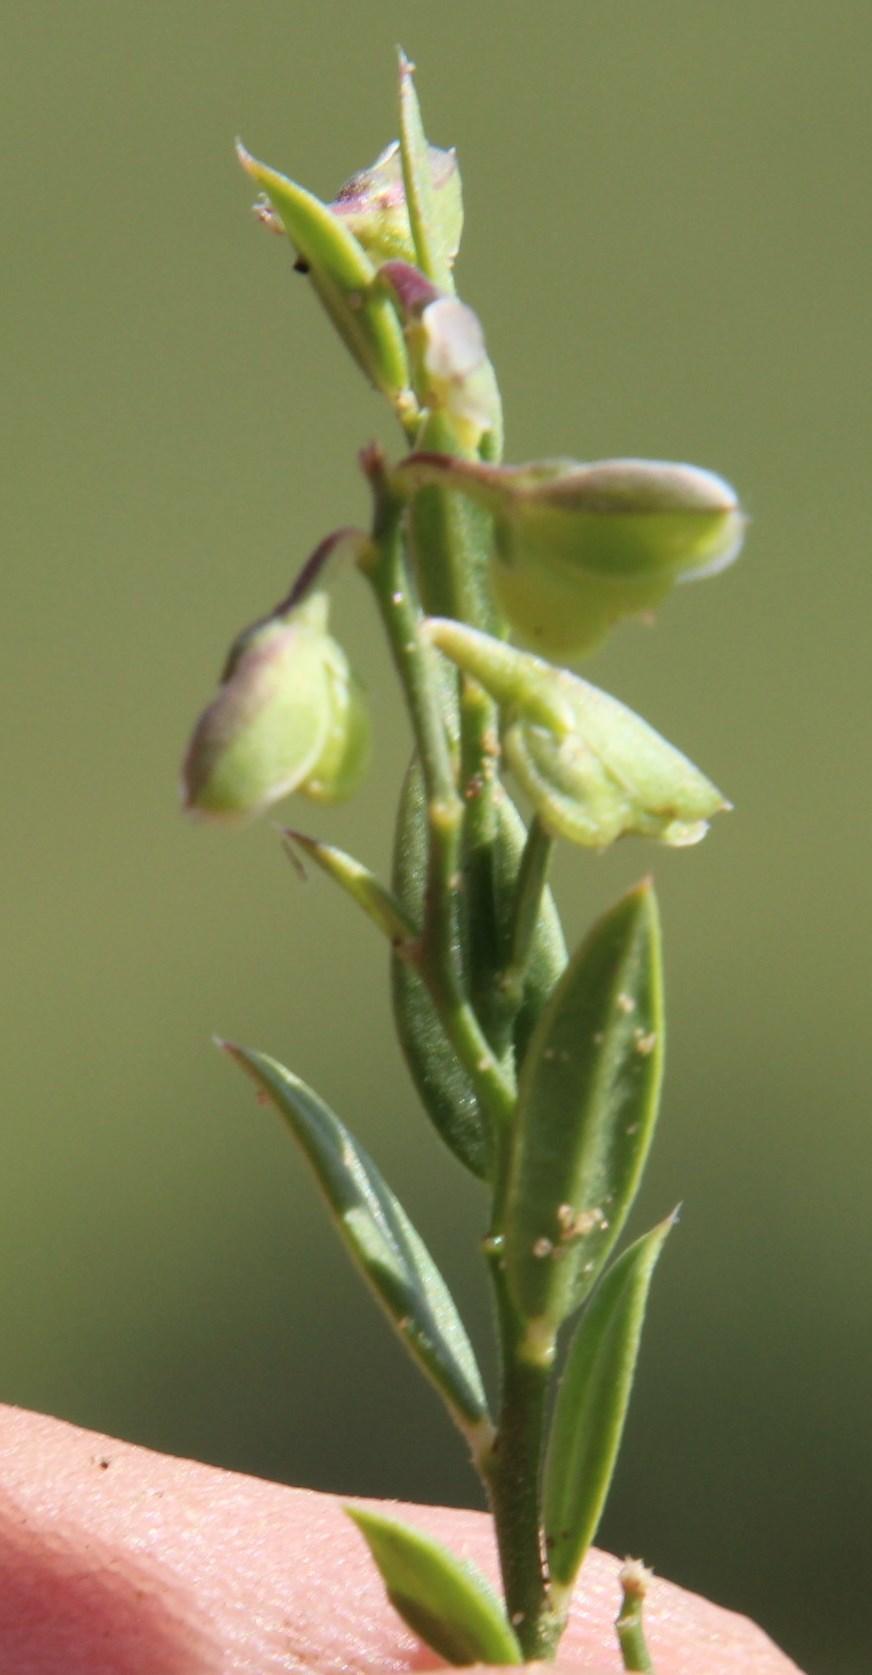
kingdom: Plantae
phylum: Tracheophyta
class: Magnoliopsida
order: Fabales
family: Polygalaceae
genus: Polygala
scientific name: Polygala leptophylla
